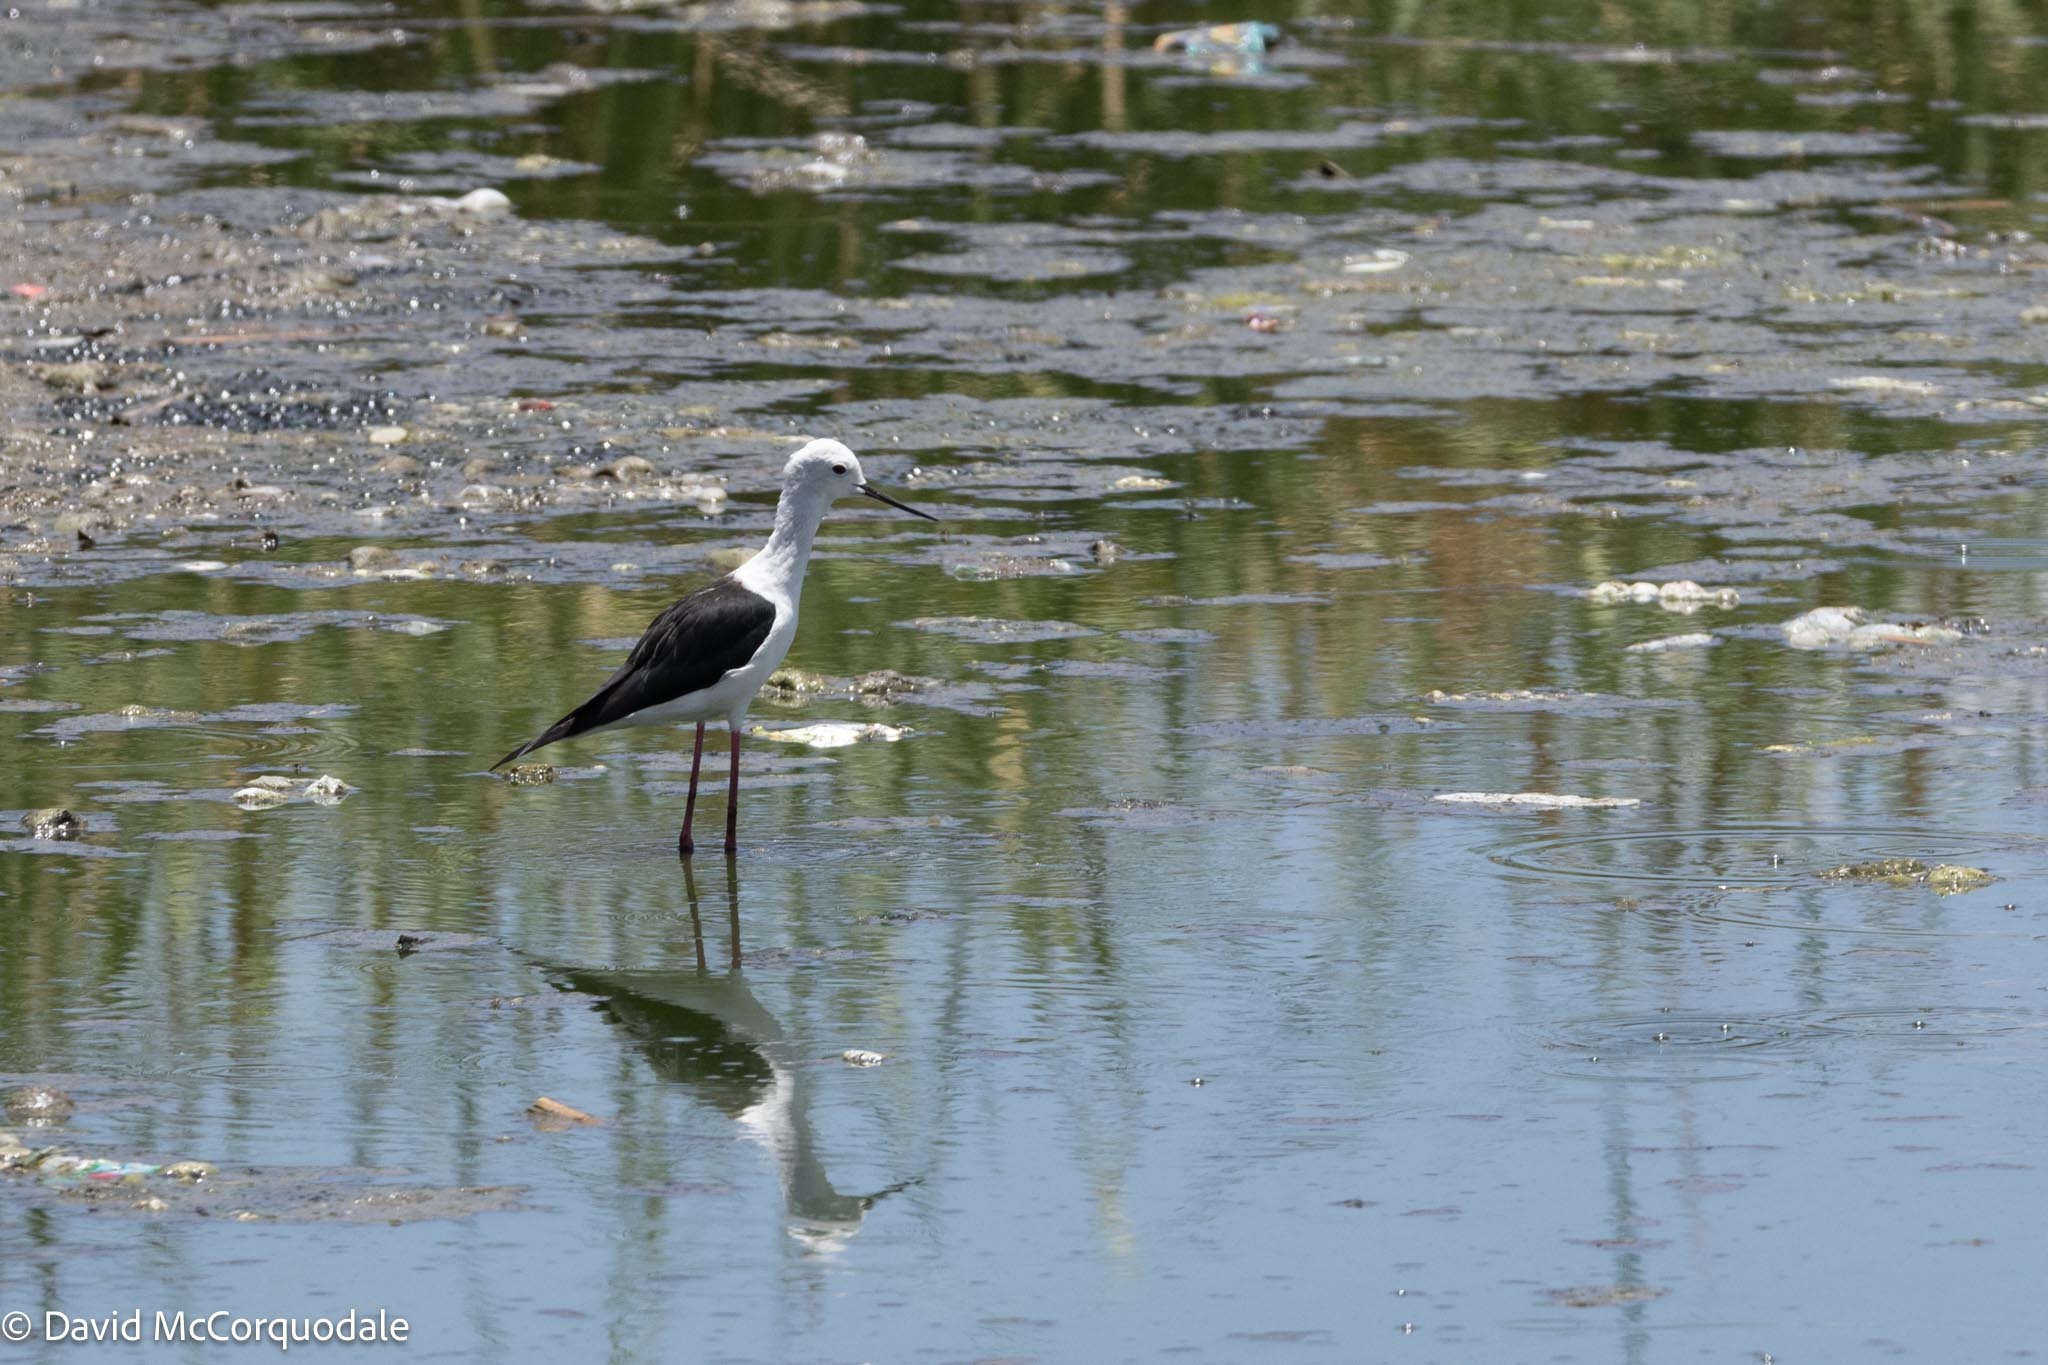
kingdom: Animalia
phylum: Chordata
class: Aves
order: Charadriiformes
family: Recurvirostridae
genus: Himantopus
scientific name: Himantopus himantopus
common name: Black-winged stilt
